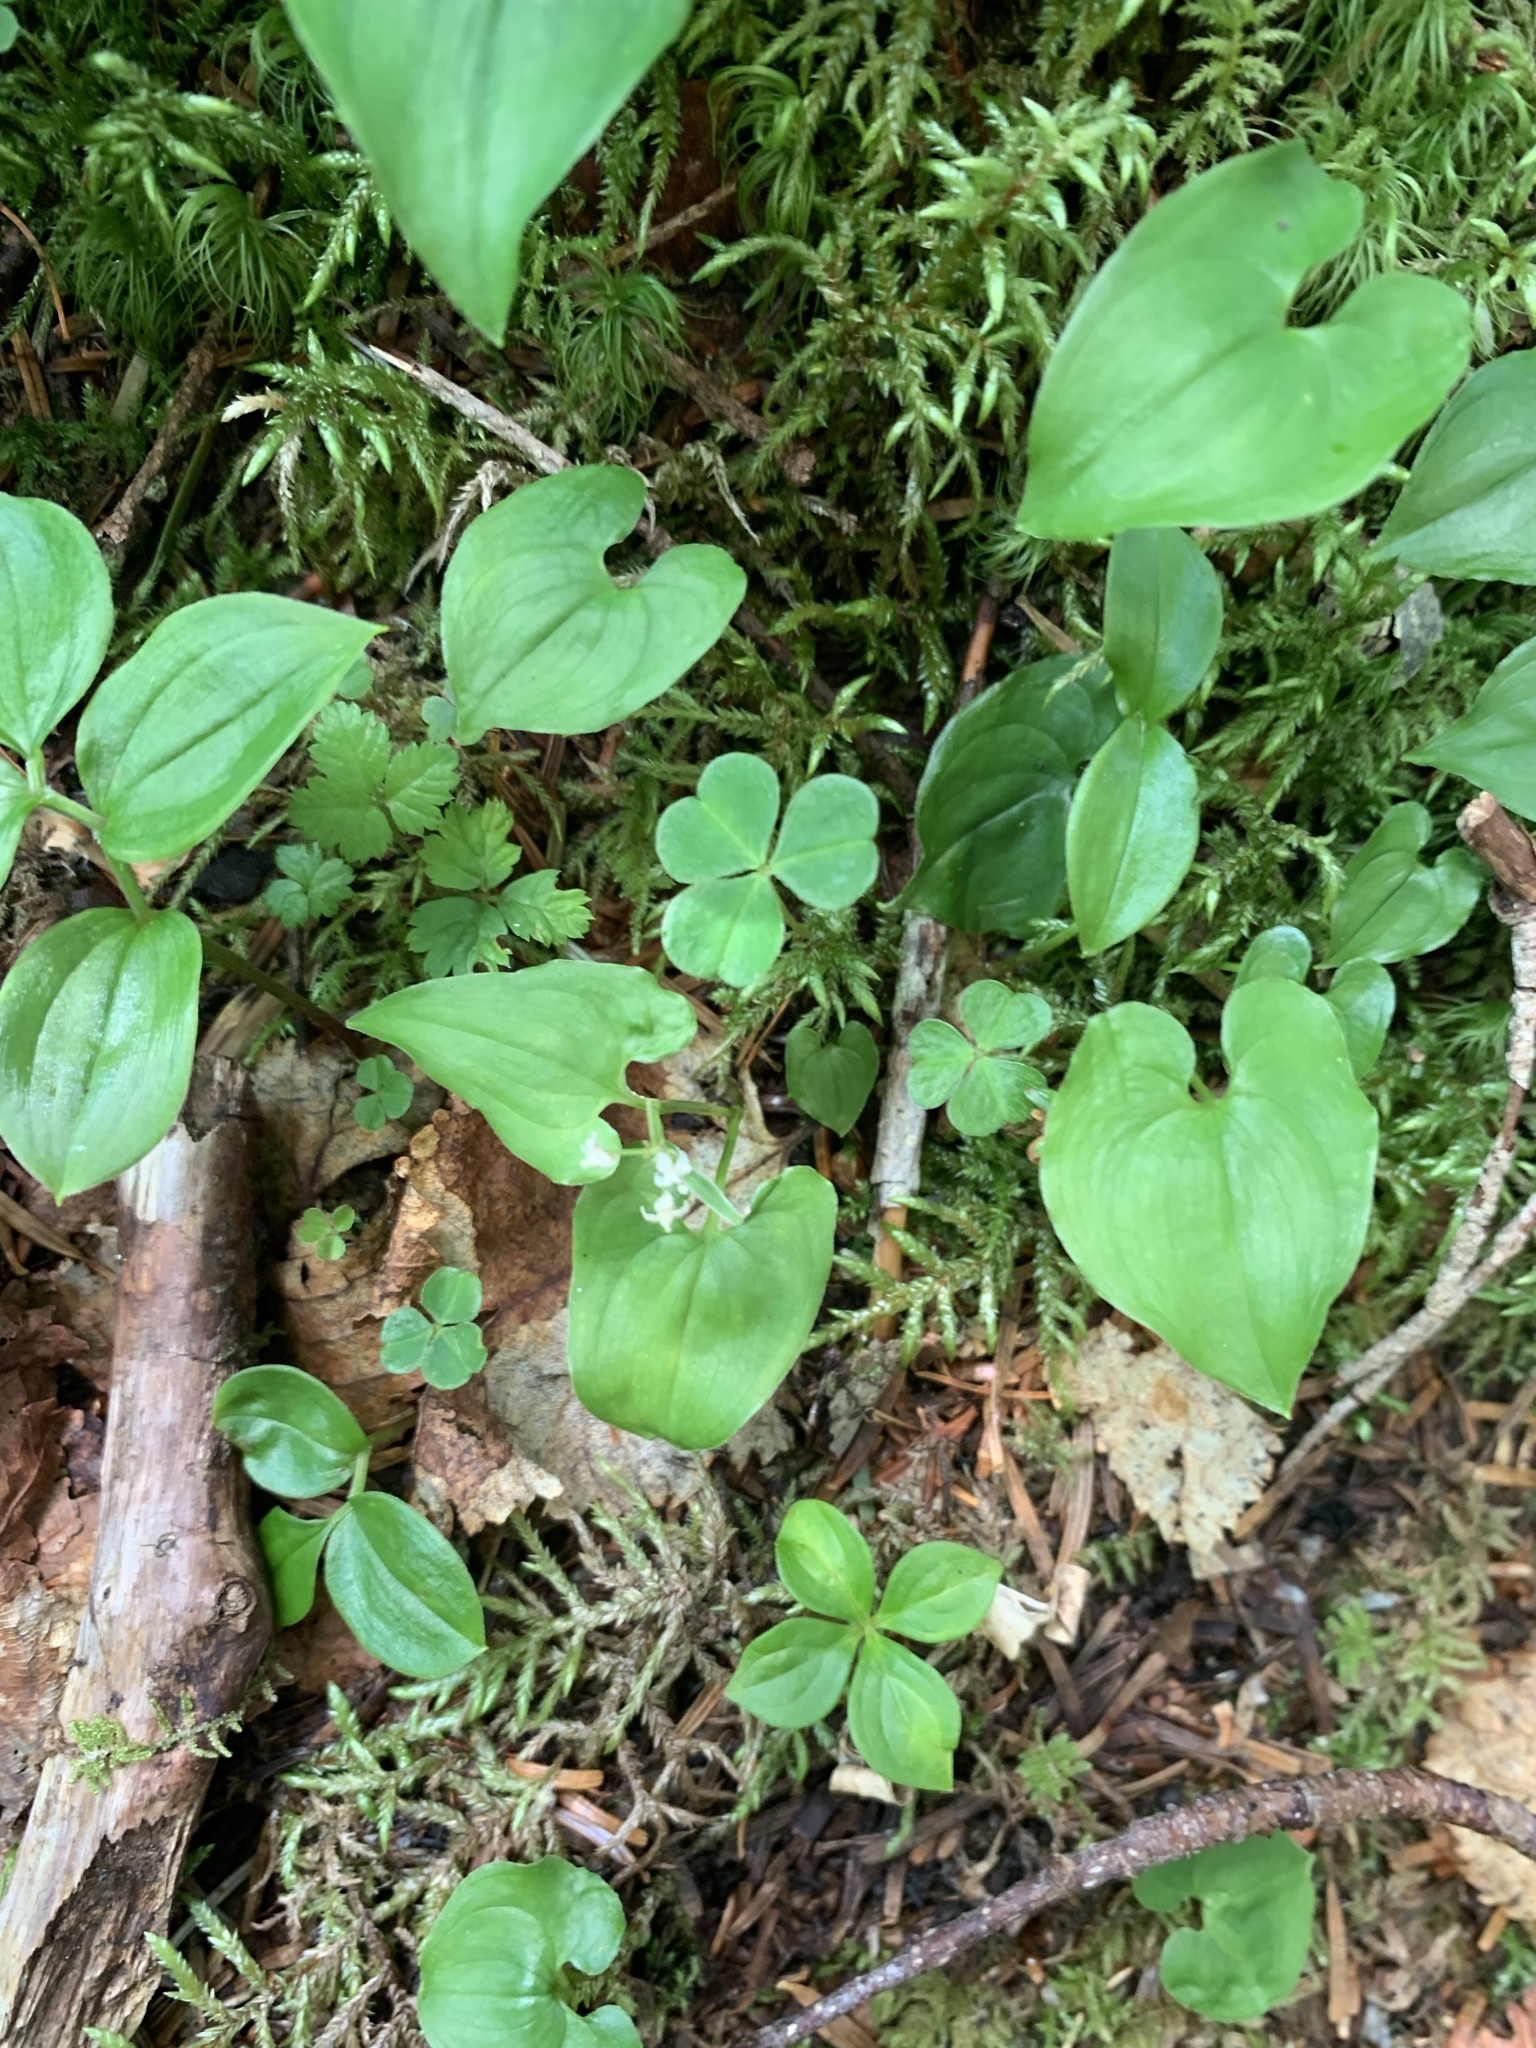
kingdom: Plantae
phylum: Tracheophyta
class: Liliopsida
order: Asparagales
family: Asparagaceae
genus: Maianthemum
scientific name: Maianthemum dilatatum
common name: False lily-of-the-valley
